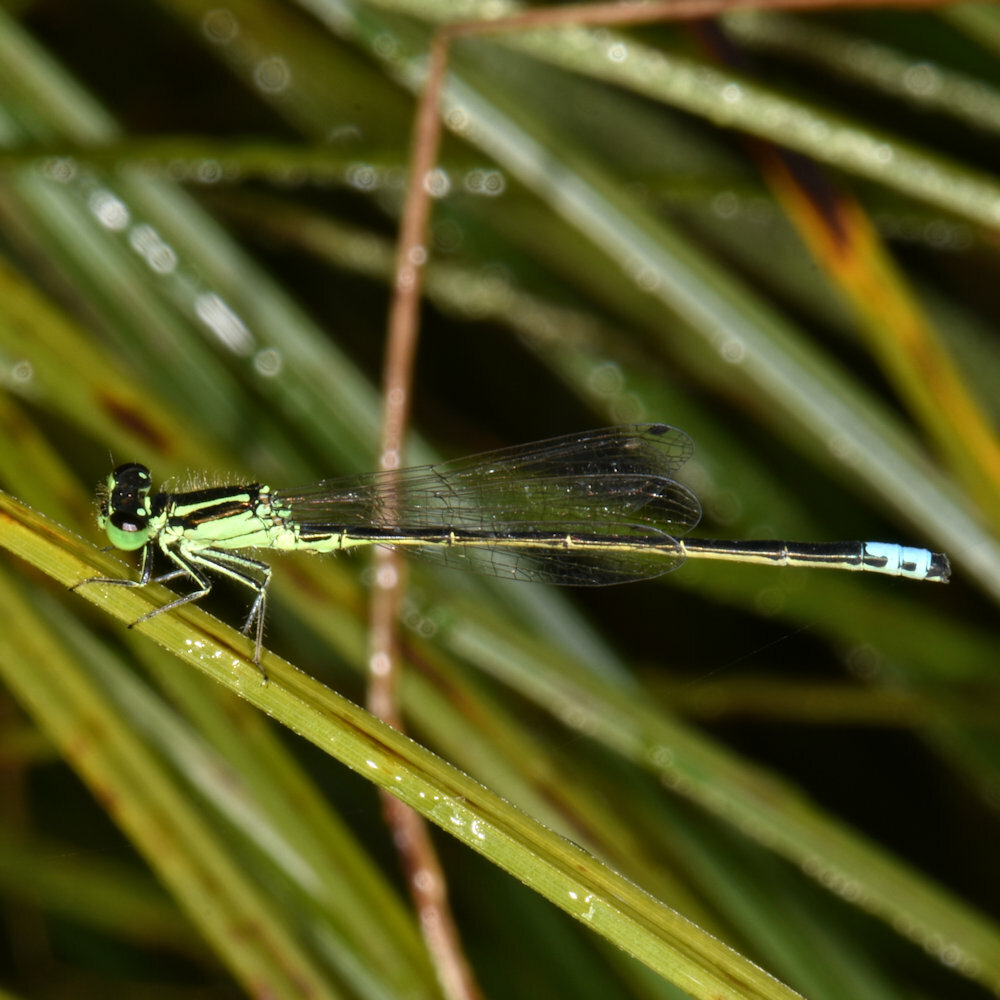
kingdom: Animalia
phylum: Arthropoda
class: Insecta
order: Odonata
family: Coenagrionidae
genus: Ischnura
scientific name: Ischnura verticalis
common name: Eastern forktail
